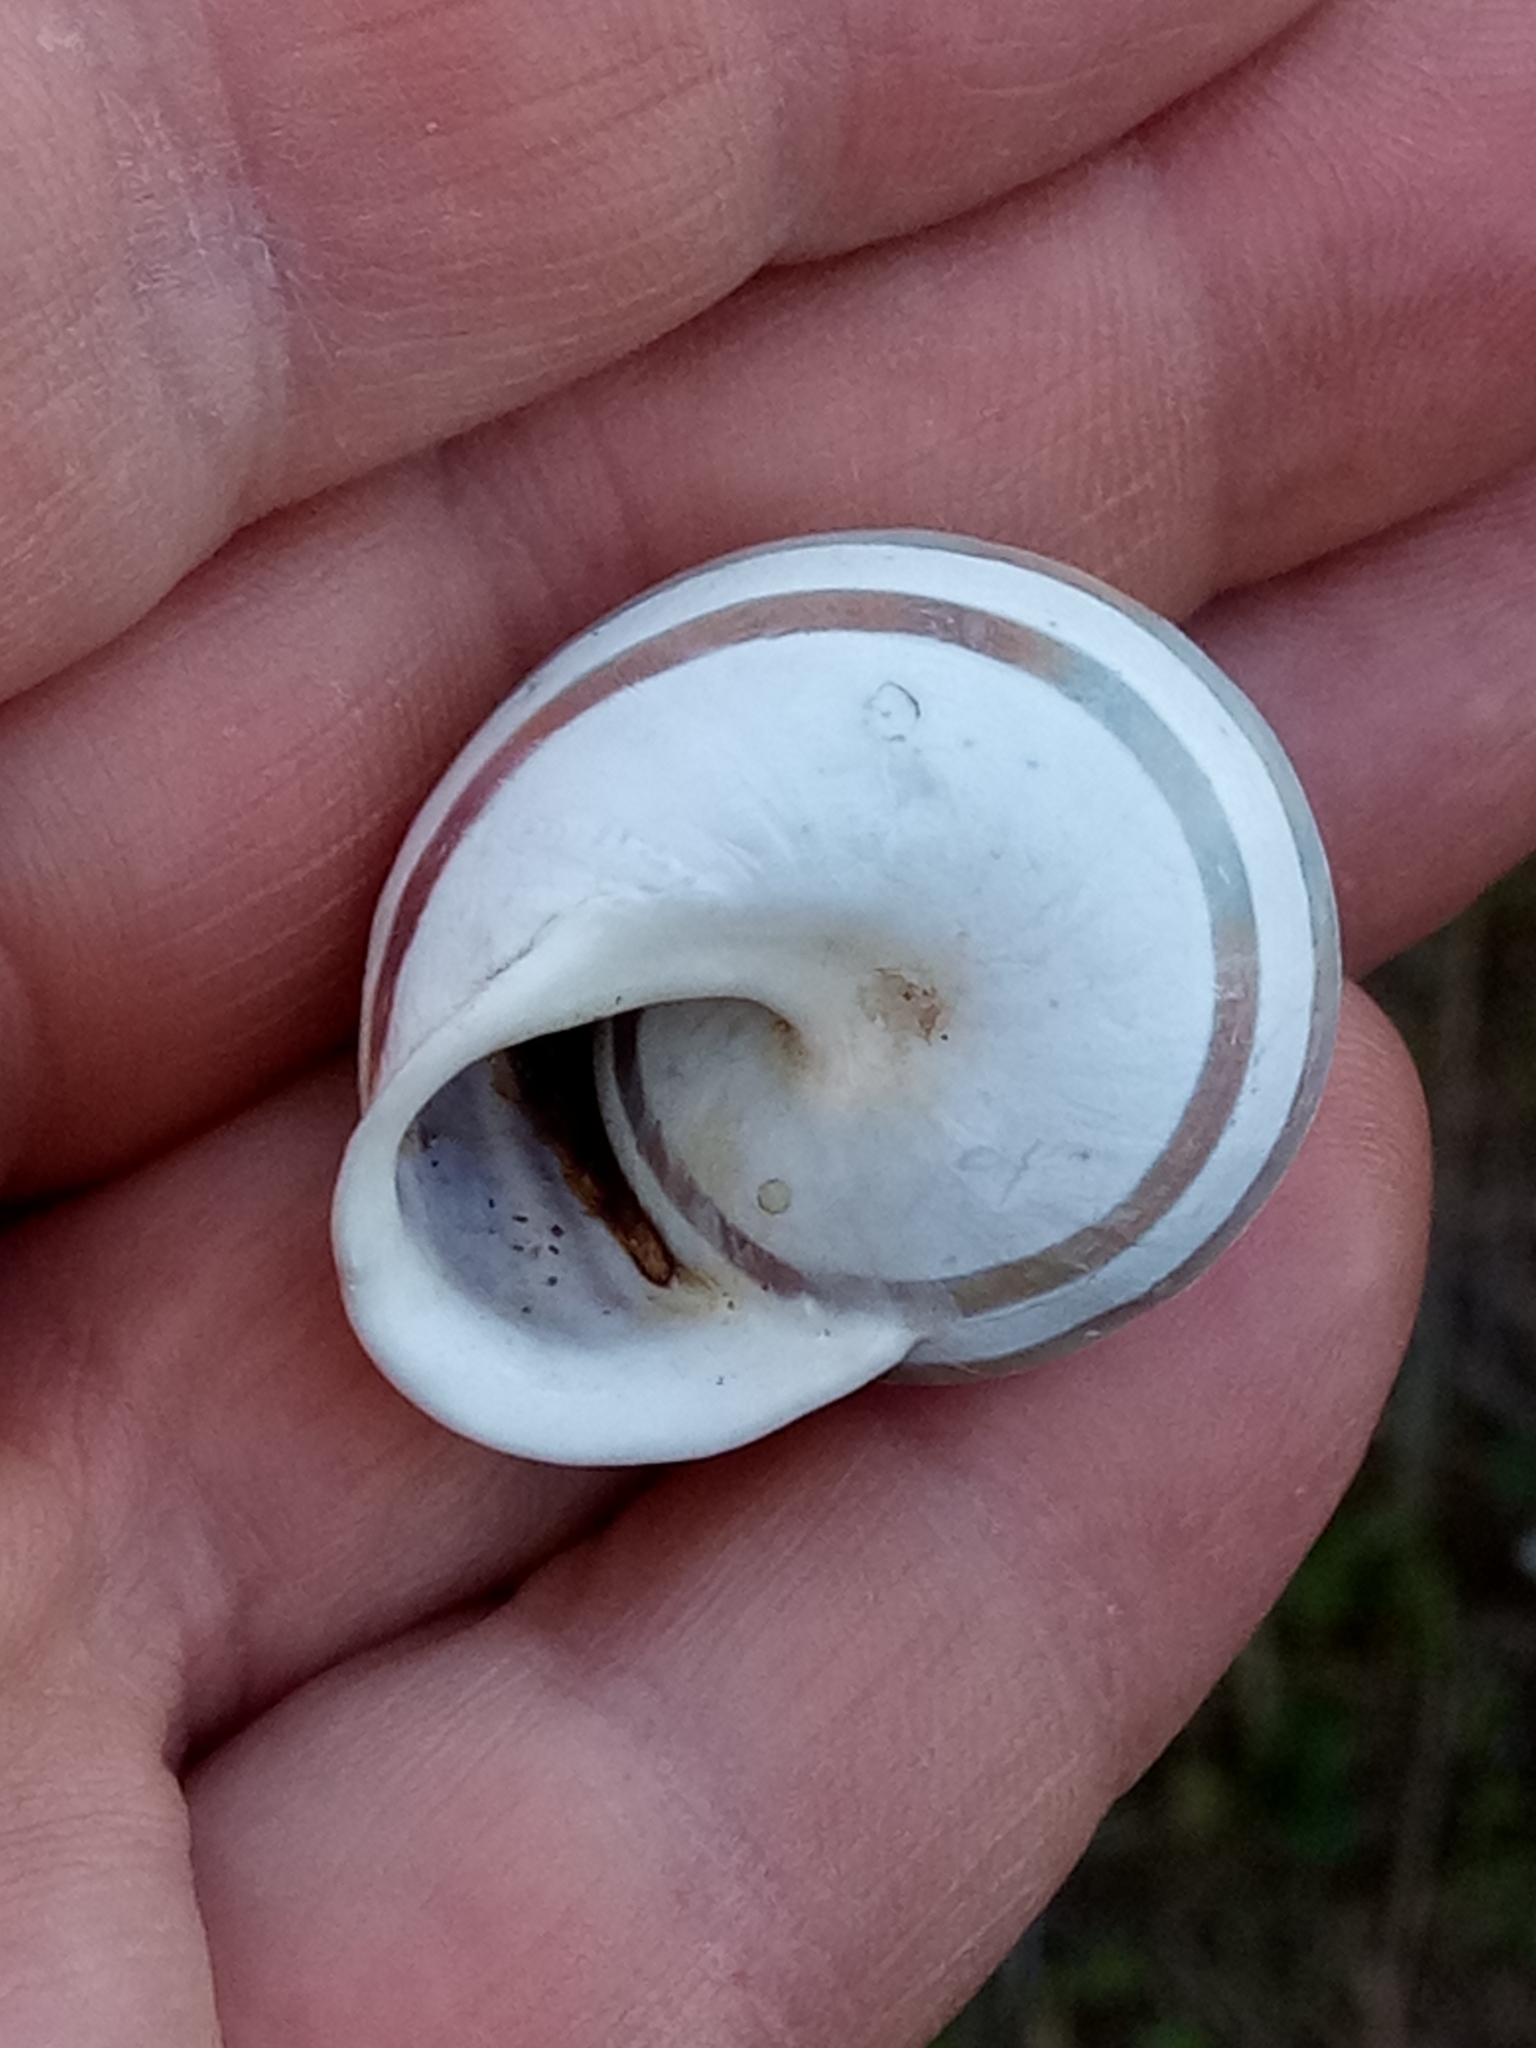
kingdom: Animalia
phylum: Mollusca
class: Gastropoda
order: Stylommatophora
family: Helicidae
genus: Eobania
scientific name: Eobania vermiculata
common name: Chocolateband snail
